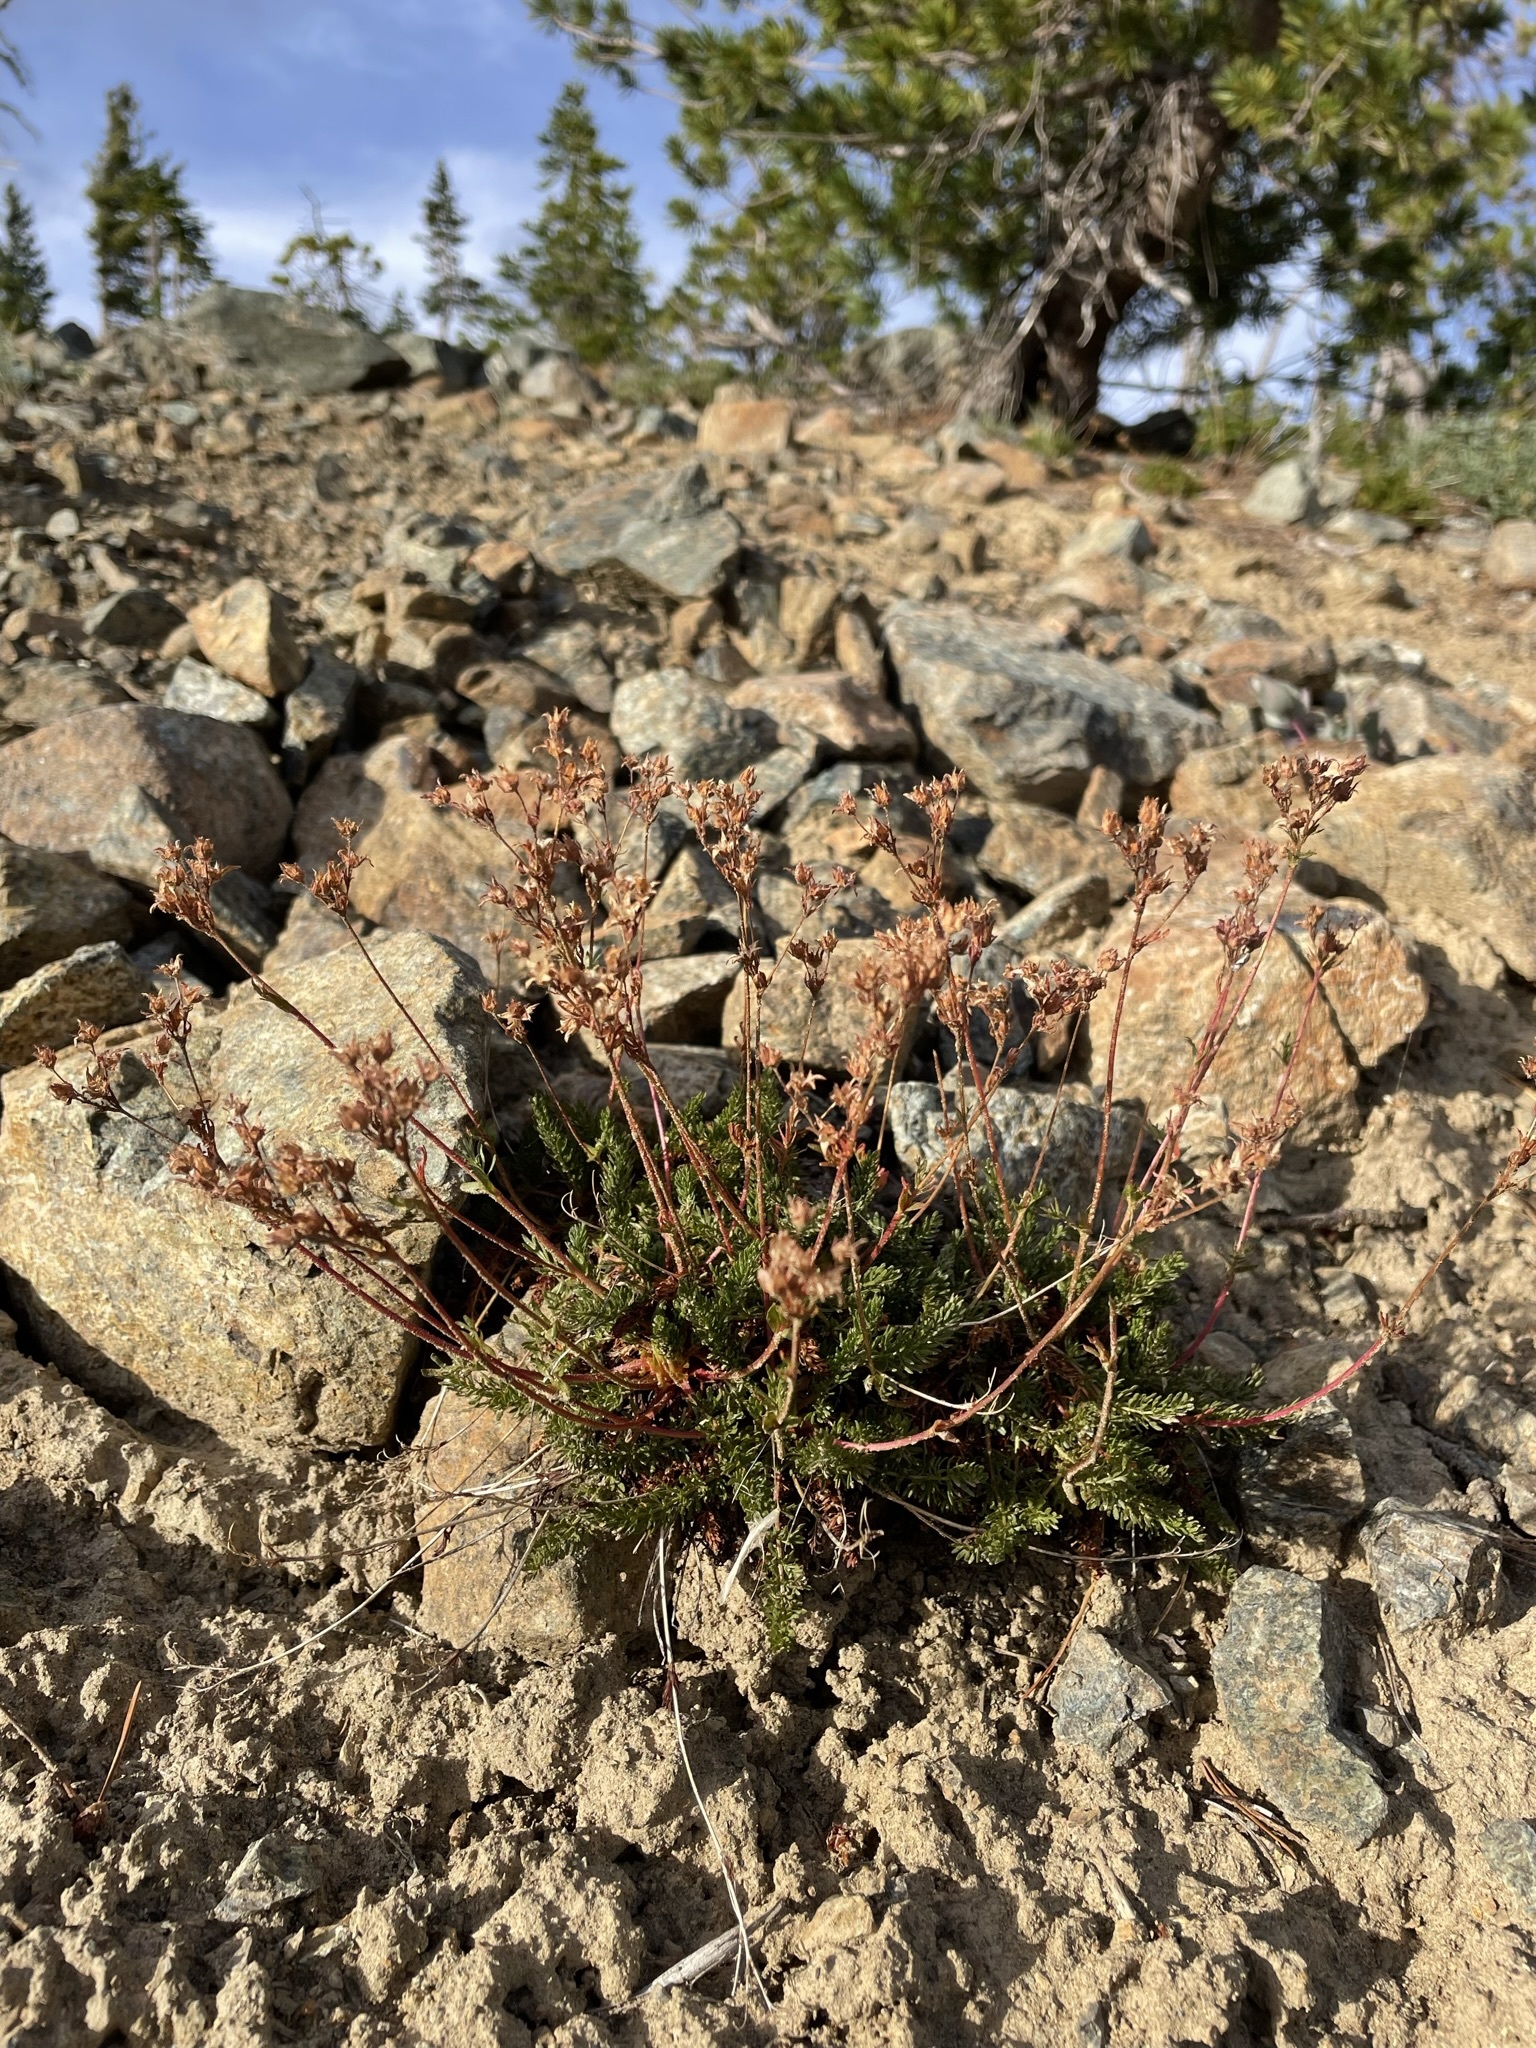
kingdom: Plantae
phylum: Tracheophyta
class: Magnoliopsida
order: Rosales
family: Rosaceae
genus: Potentilla
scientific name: Potentilla tweedyi
